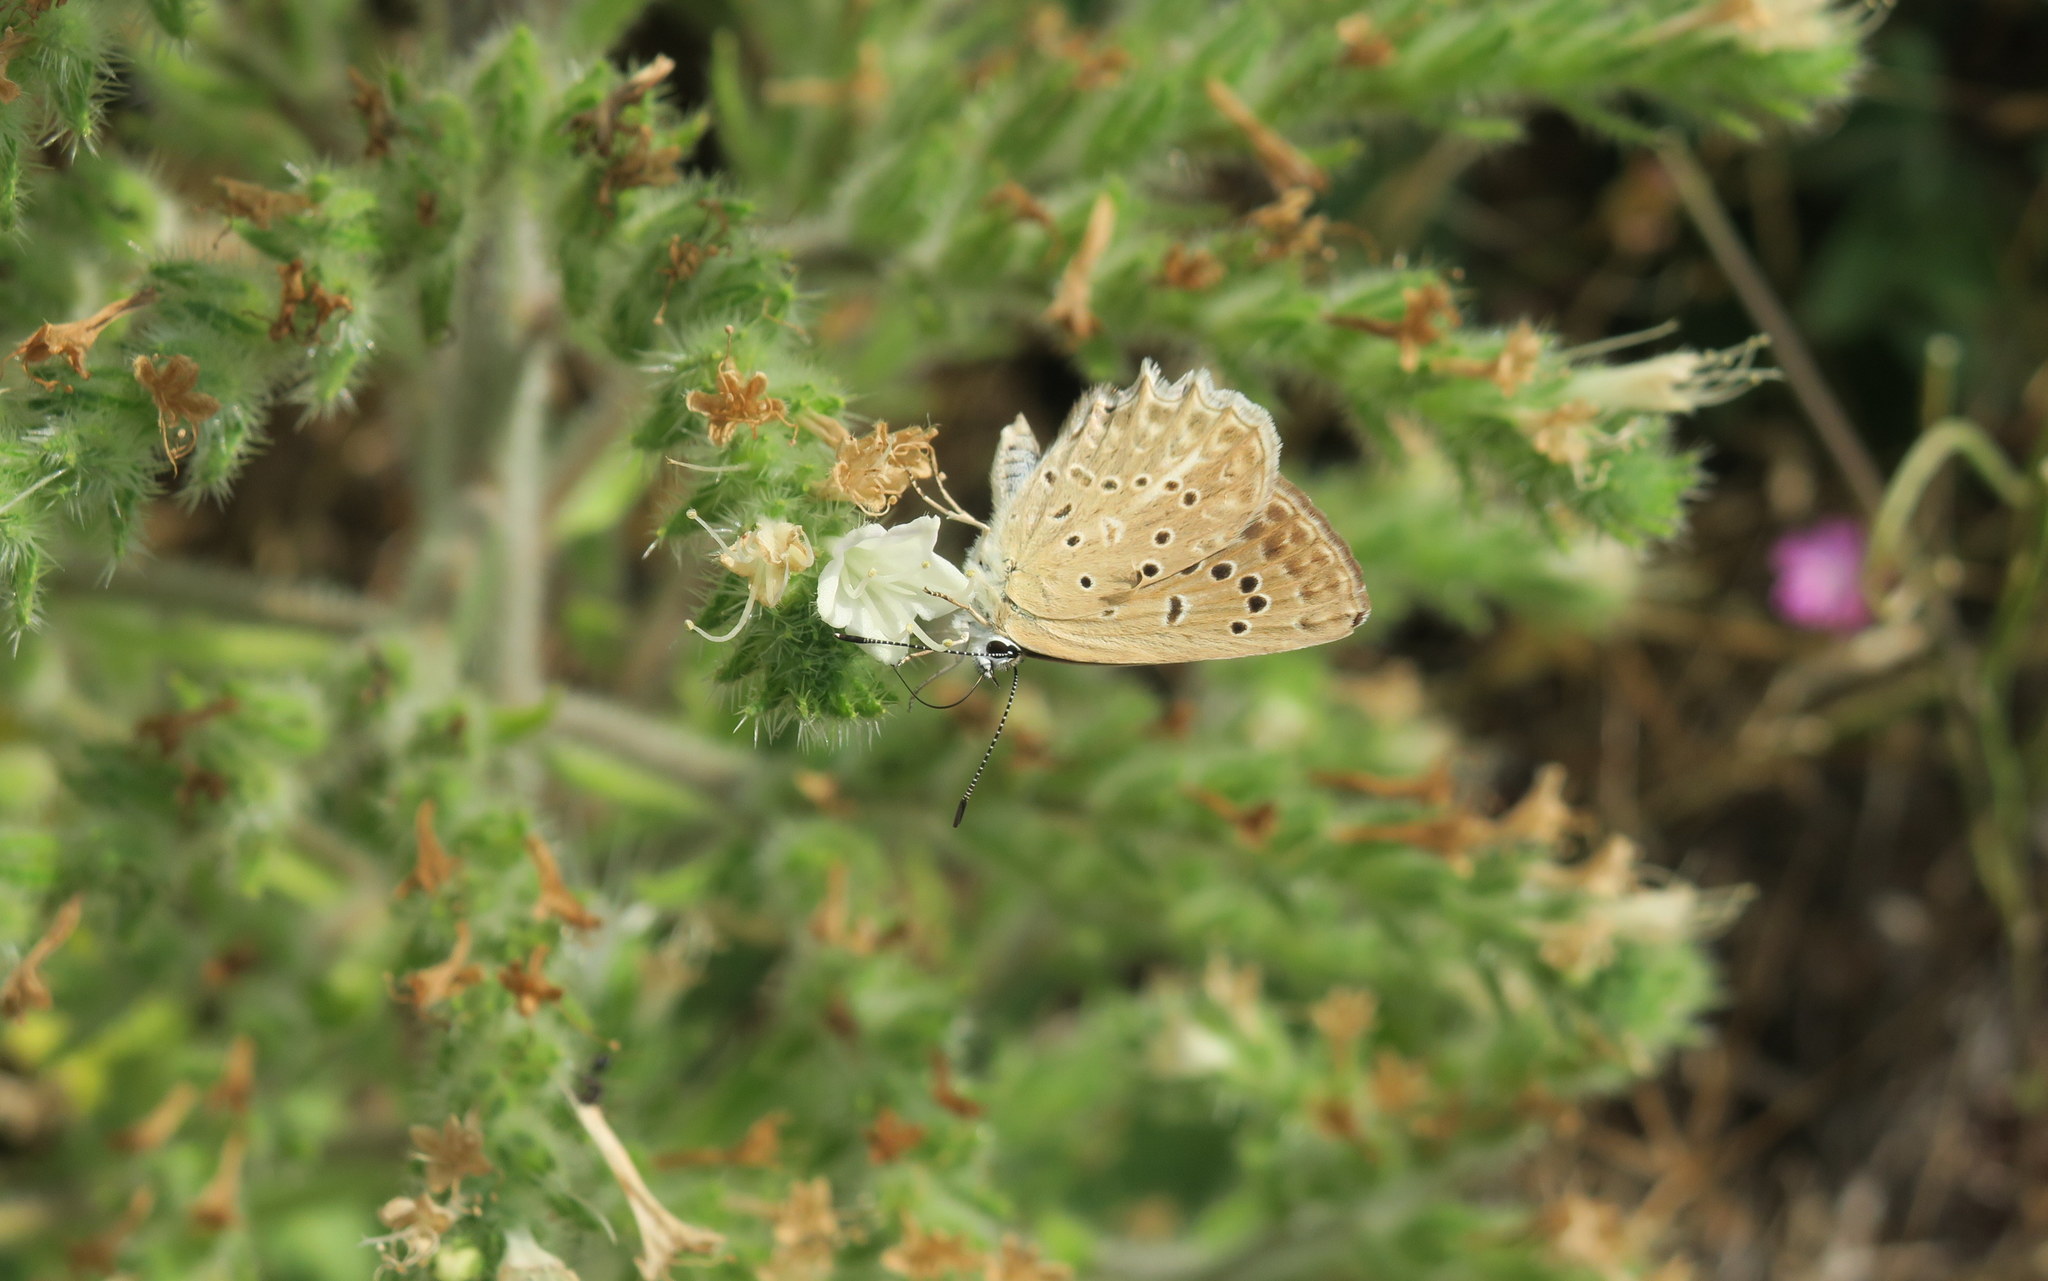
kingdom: Animalia
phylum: Arthropoda
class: Insecta
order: Lepidoptera
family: Lycaenidae
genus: Polyommatus
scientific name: Polyommatus daphnis
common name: Meleager's blue
